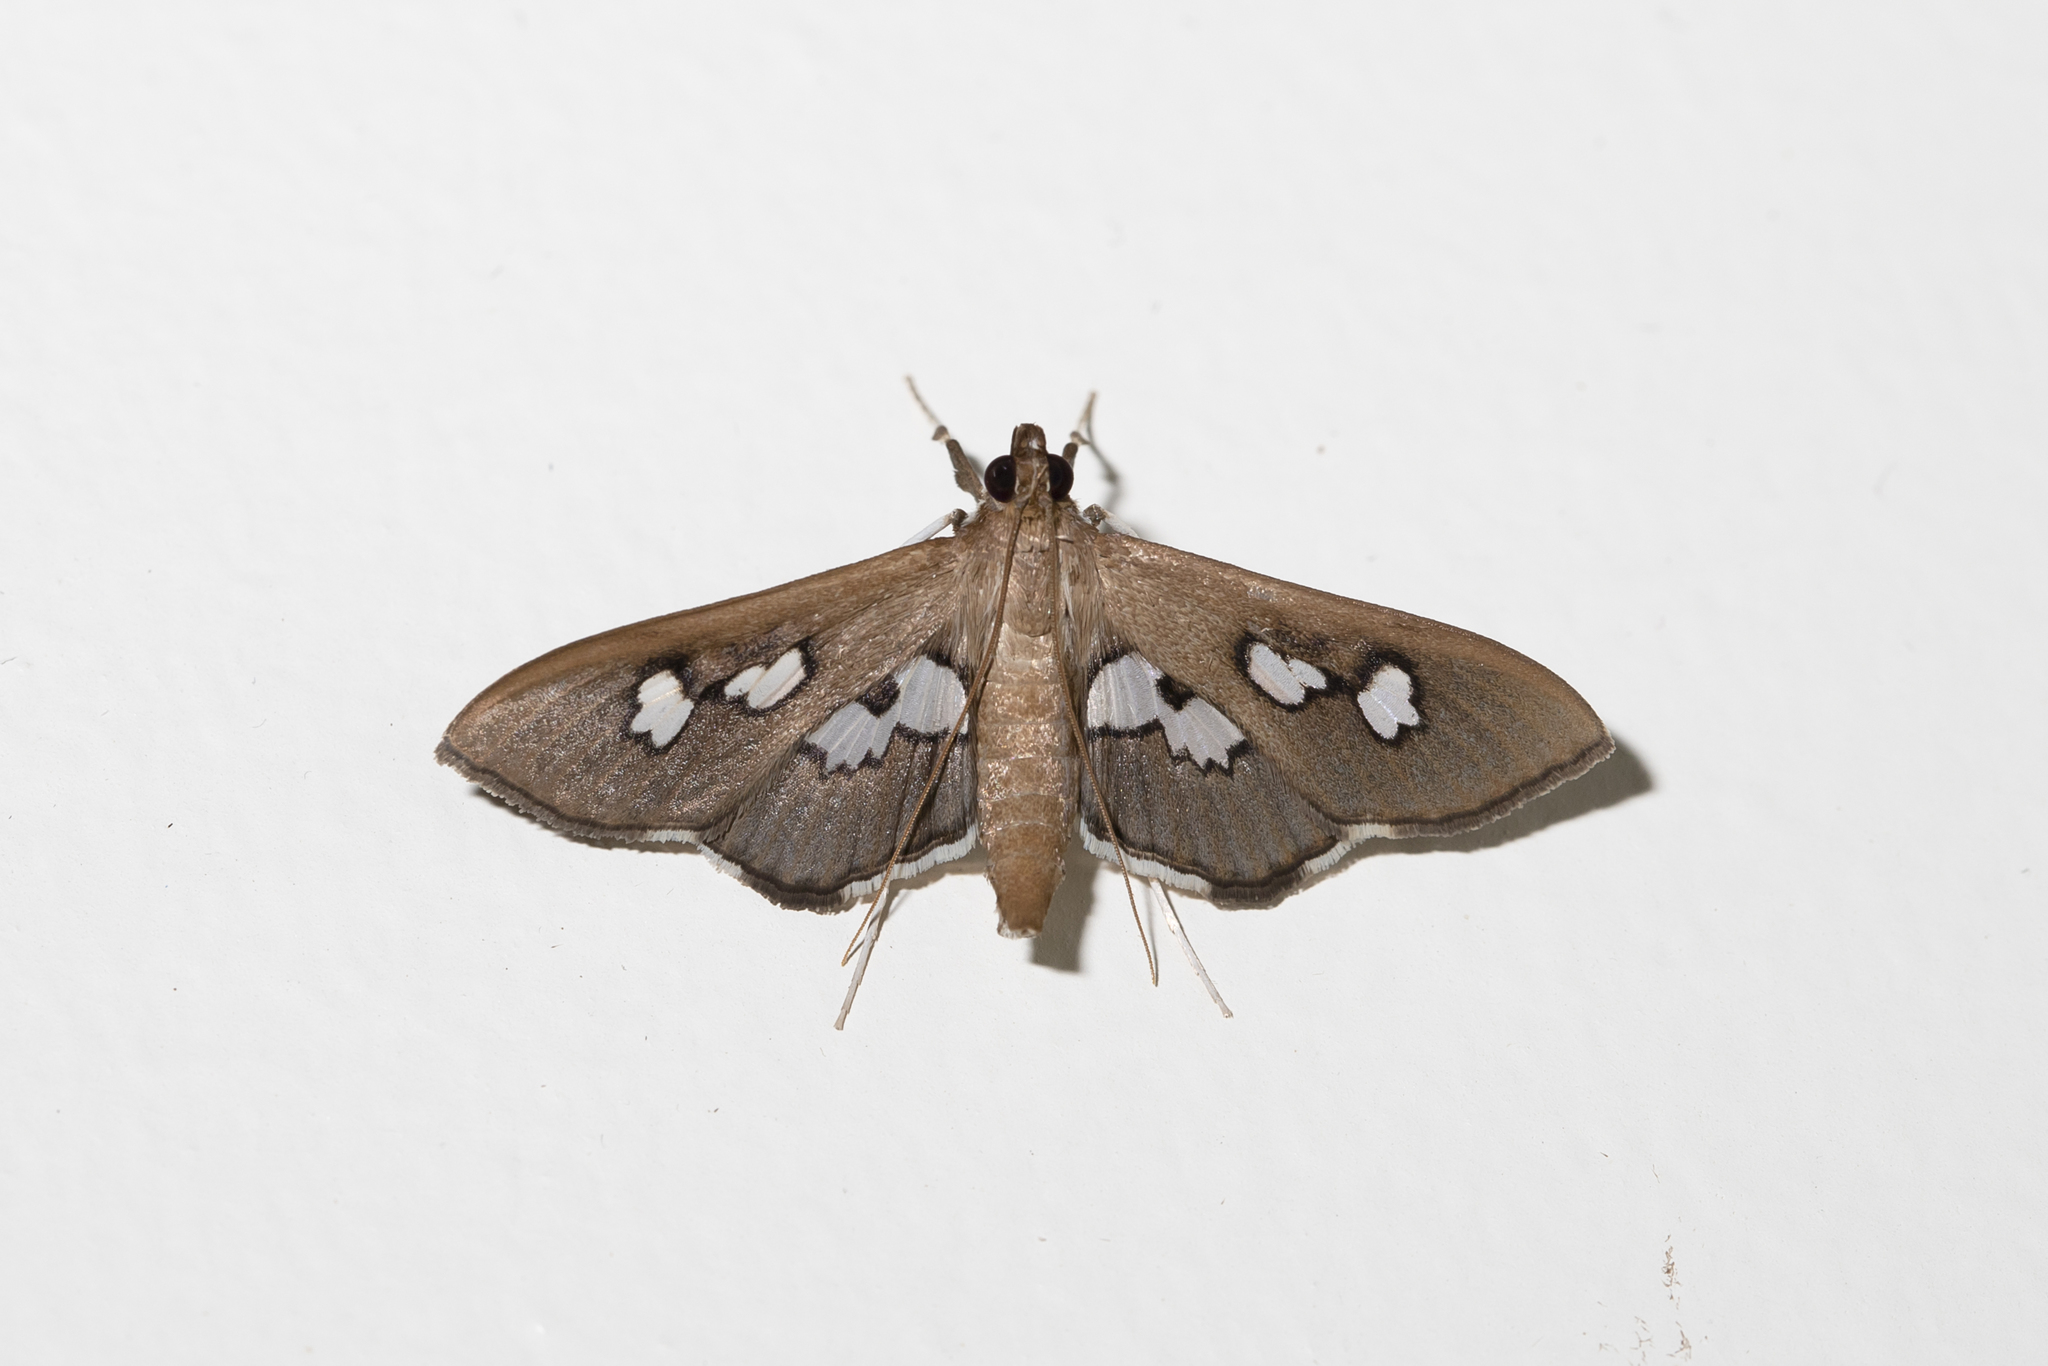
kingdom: Animalia
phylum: Arthropoda
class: Insecta
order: Lepidoptera
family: Crambidae
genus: Omiodes
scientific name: Omiodes odontosticta
